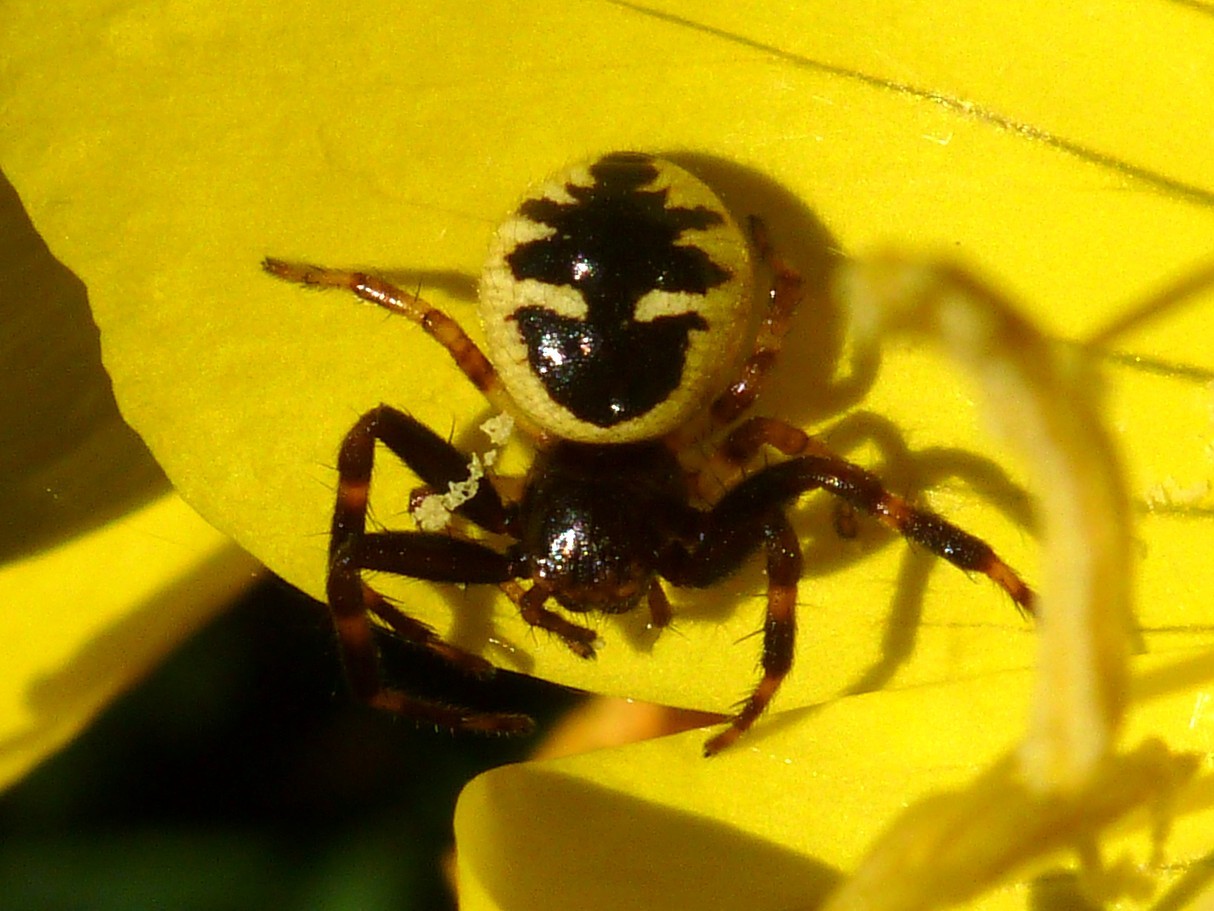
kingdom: Animalia
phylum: Arthropoda
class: Arachnida
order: Araneae
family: Thomisidae
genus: Synema
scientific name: Synema globosum
